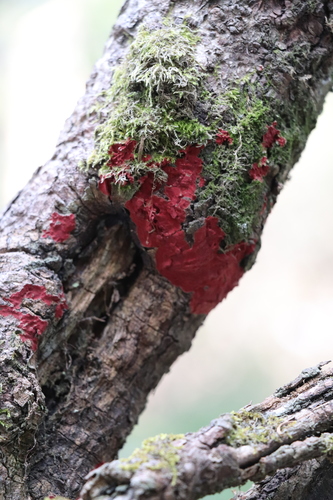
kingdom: Fungi
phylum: Basidiomycota
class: Agaricomycetes
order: Hymenochaetales
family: Hymenochaetaceae
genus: Hymenochaete
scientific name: Hymenochaete cruenta
